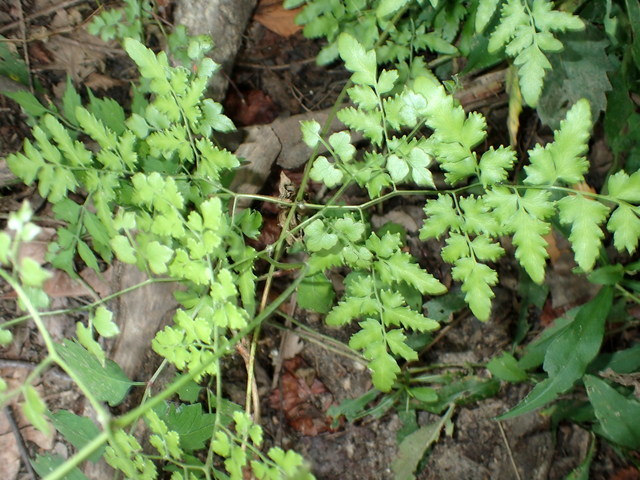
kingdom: Plantae
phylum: Tracheophyta
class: Polypodiopsida
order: Schizaeales
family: Lygodiaceae
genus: Lygodium
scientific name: Lygodium japonicum
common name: Japanese climbing fern
